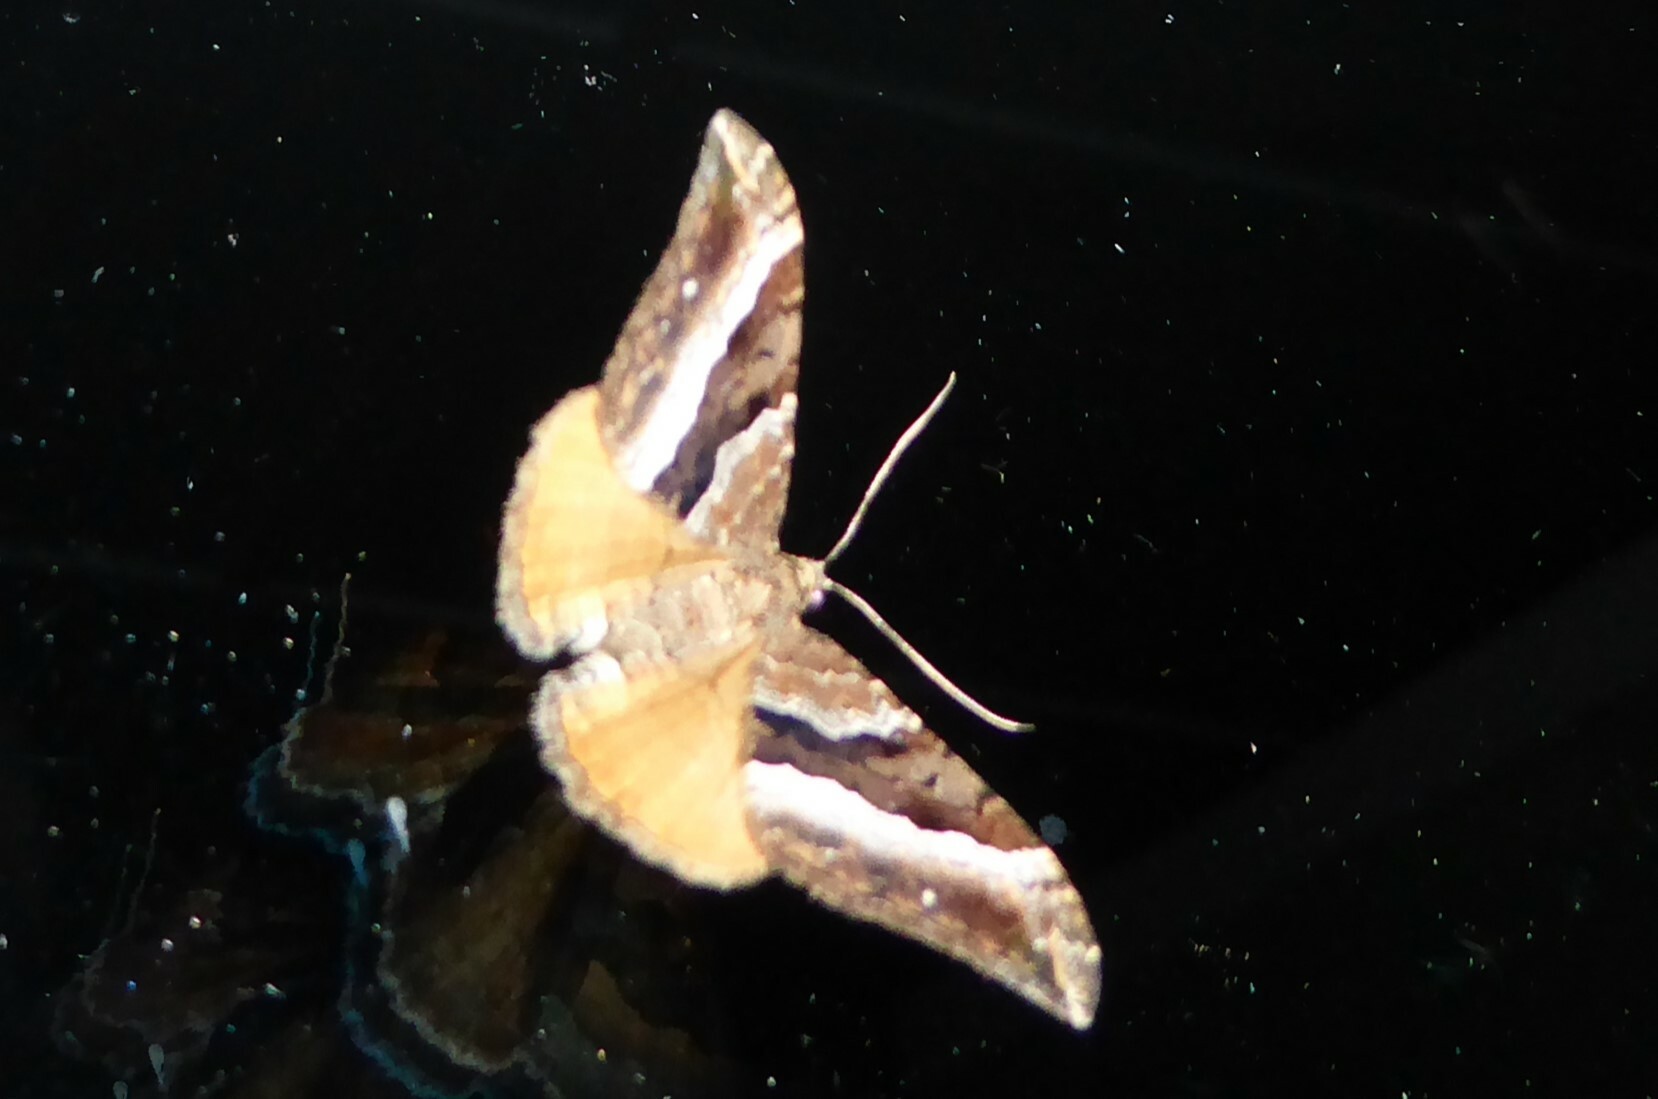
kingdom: Animalia
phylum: Arthropoda
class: Insecta
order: Lepidoptera
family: Geometridae
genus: Hydriomena
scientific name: Hydriomena deltoidata
